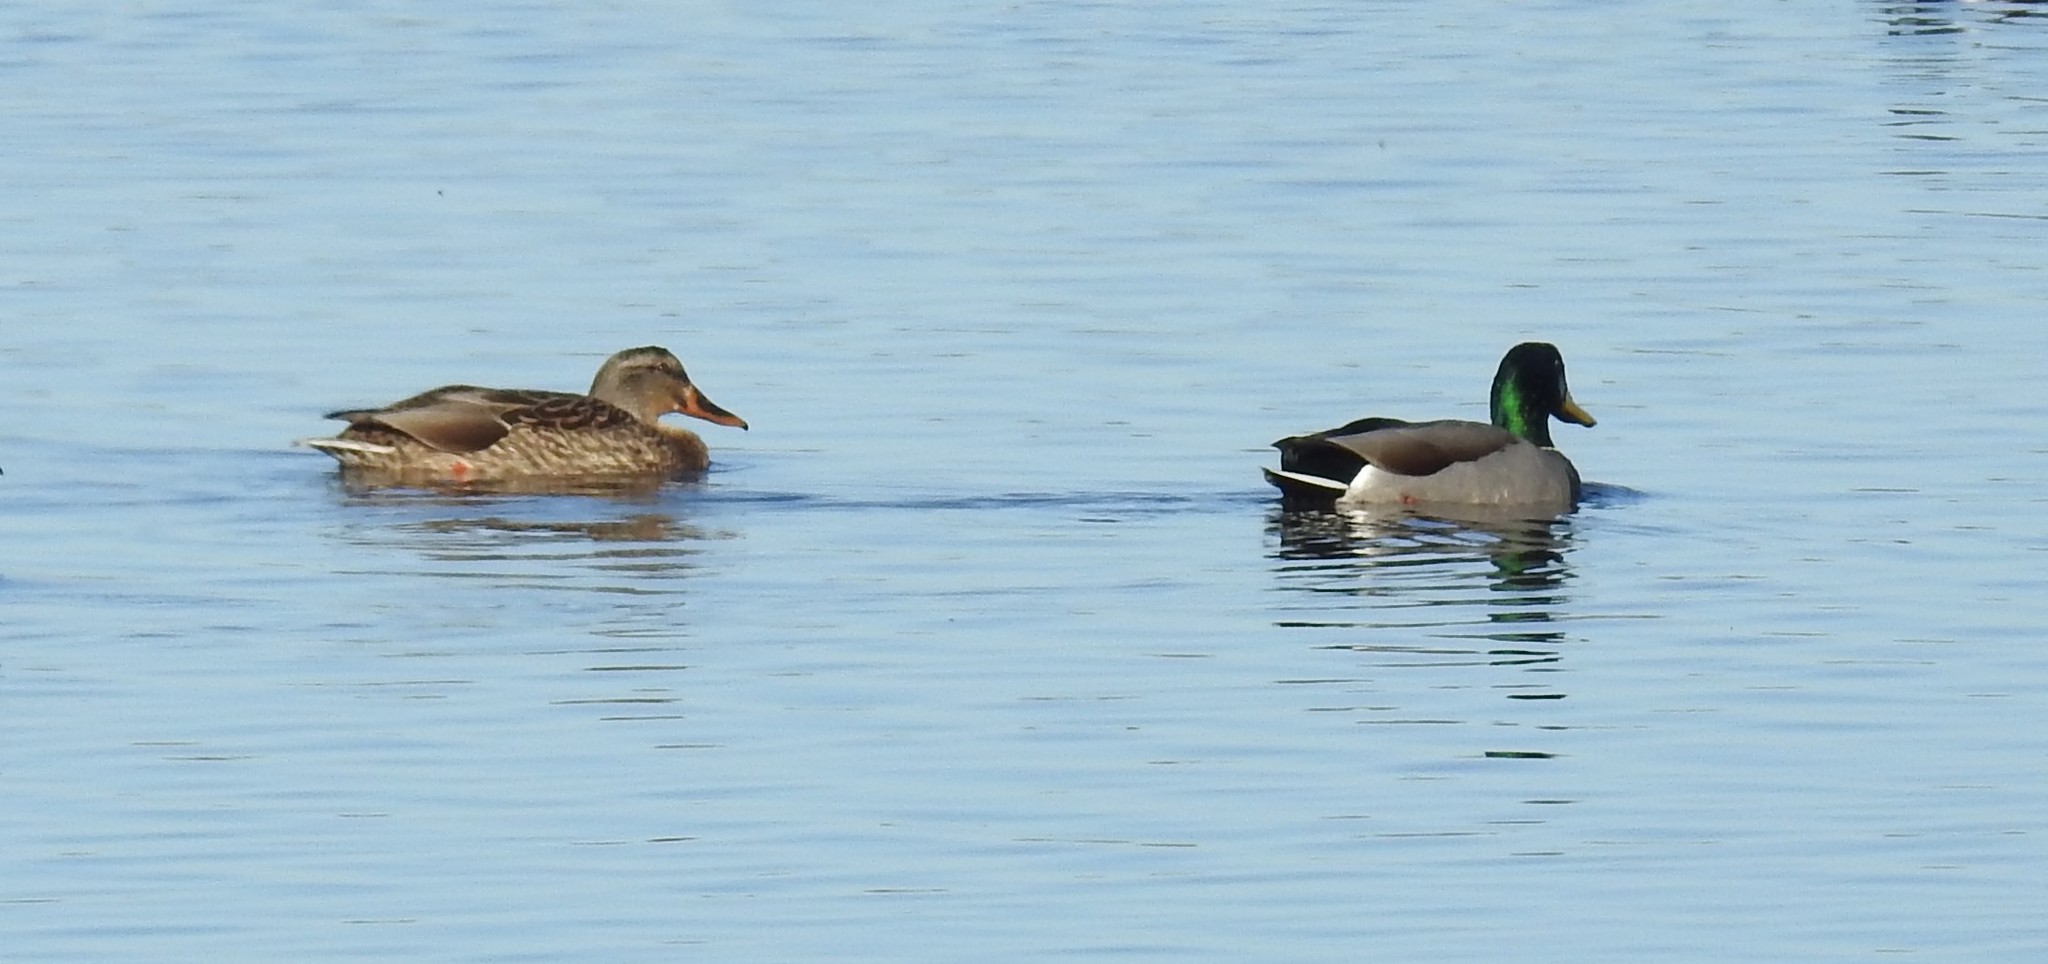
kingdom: Animalia
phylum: Chordata
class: Aves
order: Anseriformes
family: Anatidae
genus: Anas
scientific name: Anas platyrhynchos
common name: Mallard
